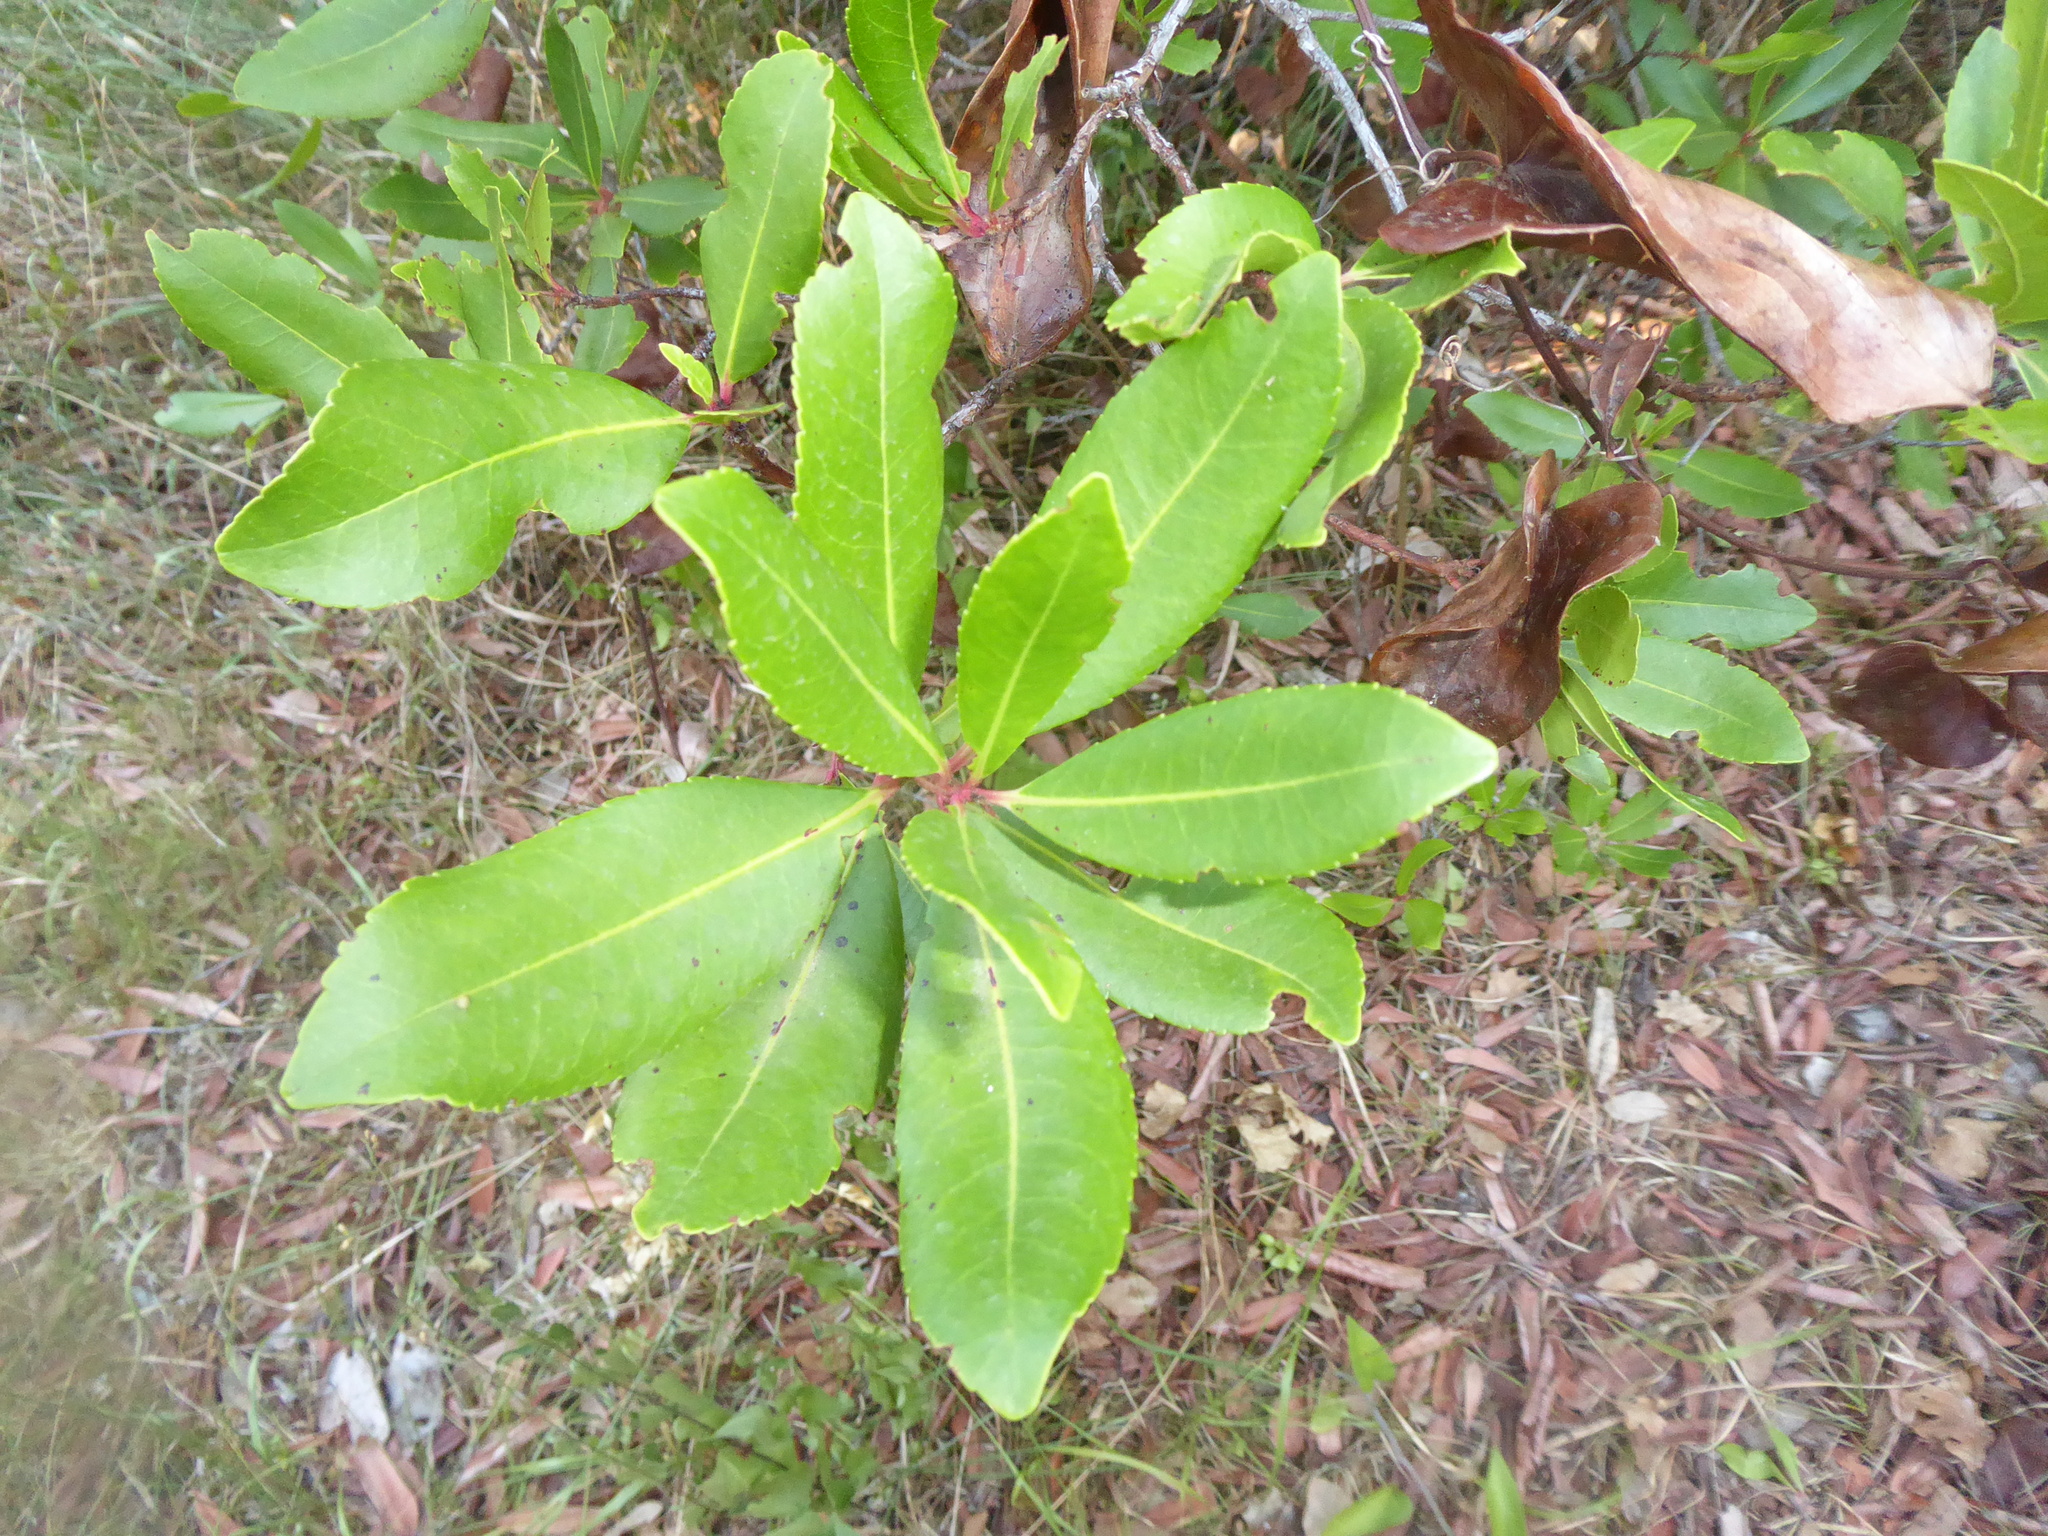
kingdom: Plantae
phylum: Tracheophyta
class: Magnoliopsida
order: Ericales
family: Ericaceae
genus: Arbutus
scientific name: Arbutus unedo
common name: Strawberry-tree
